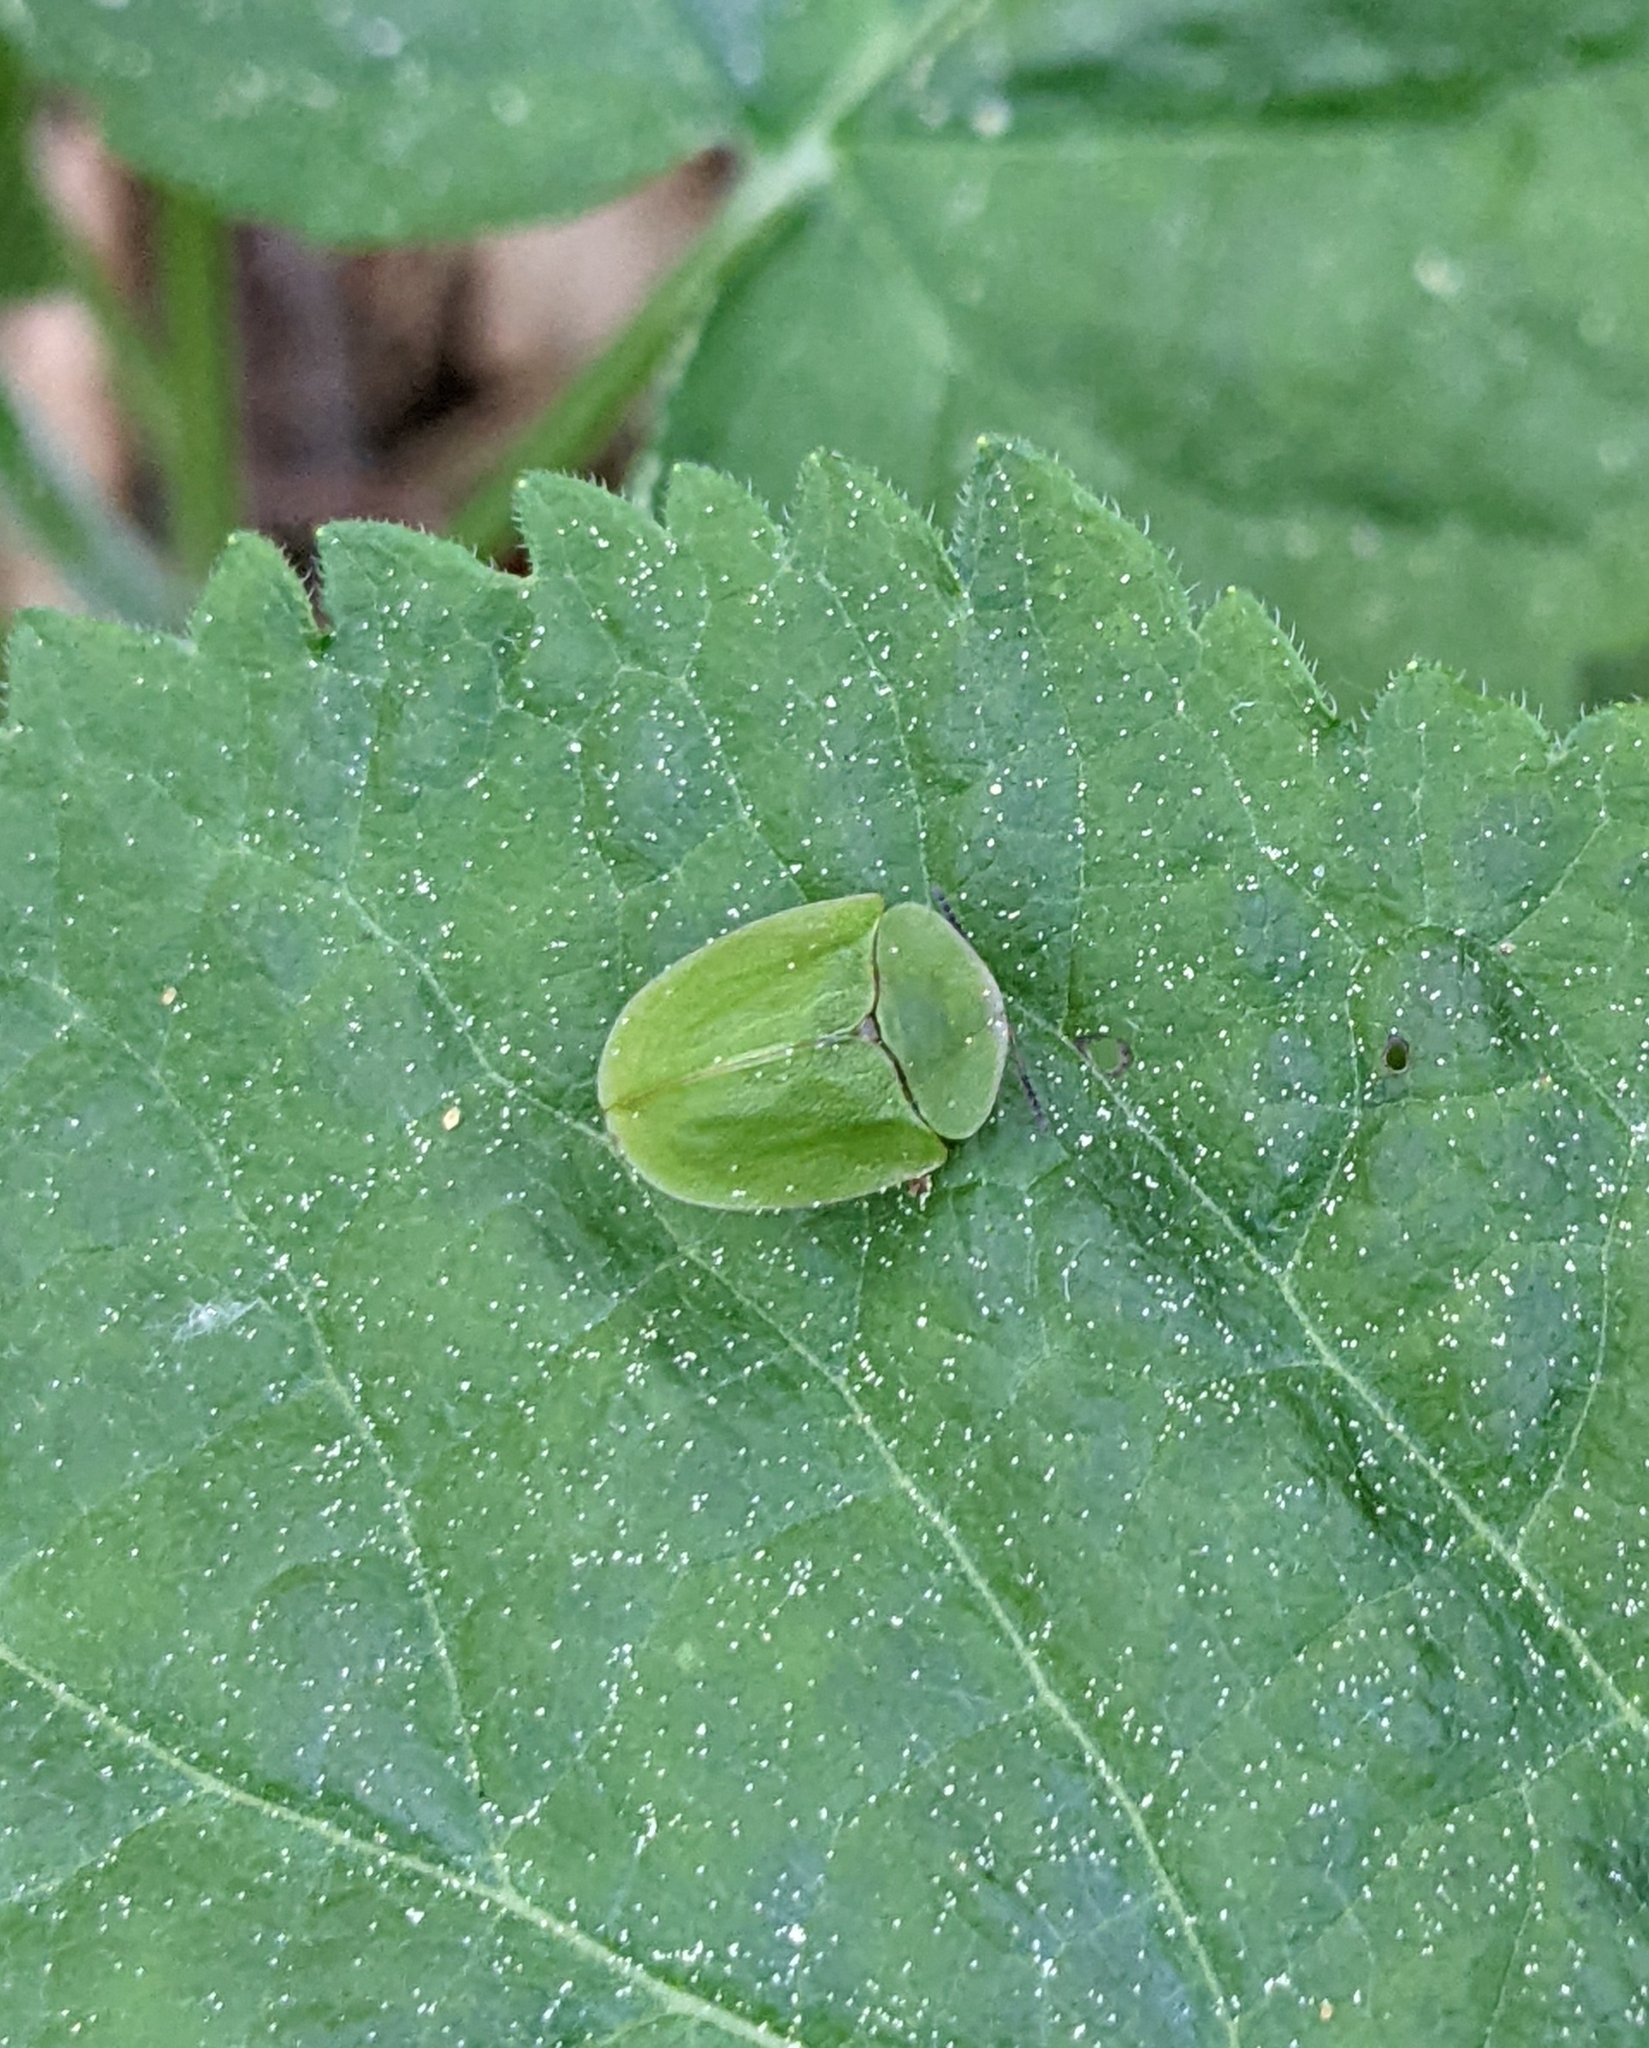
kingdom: Animalia
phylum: Arthropoda
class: Insecta
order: Coleoptera
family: Chrysomelidae
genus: Cassida
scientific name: Cassida viridis
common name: Green tortoise beetle
